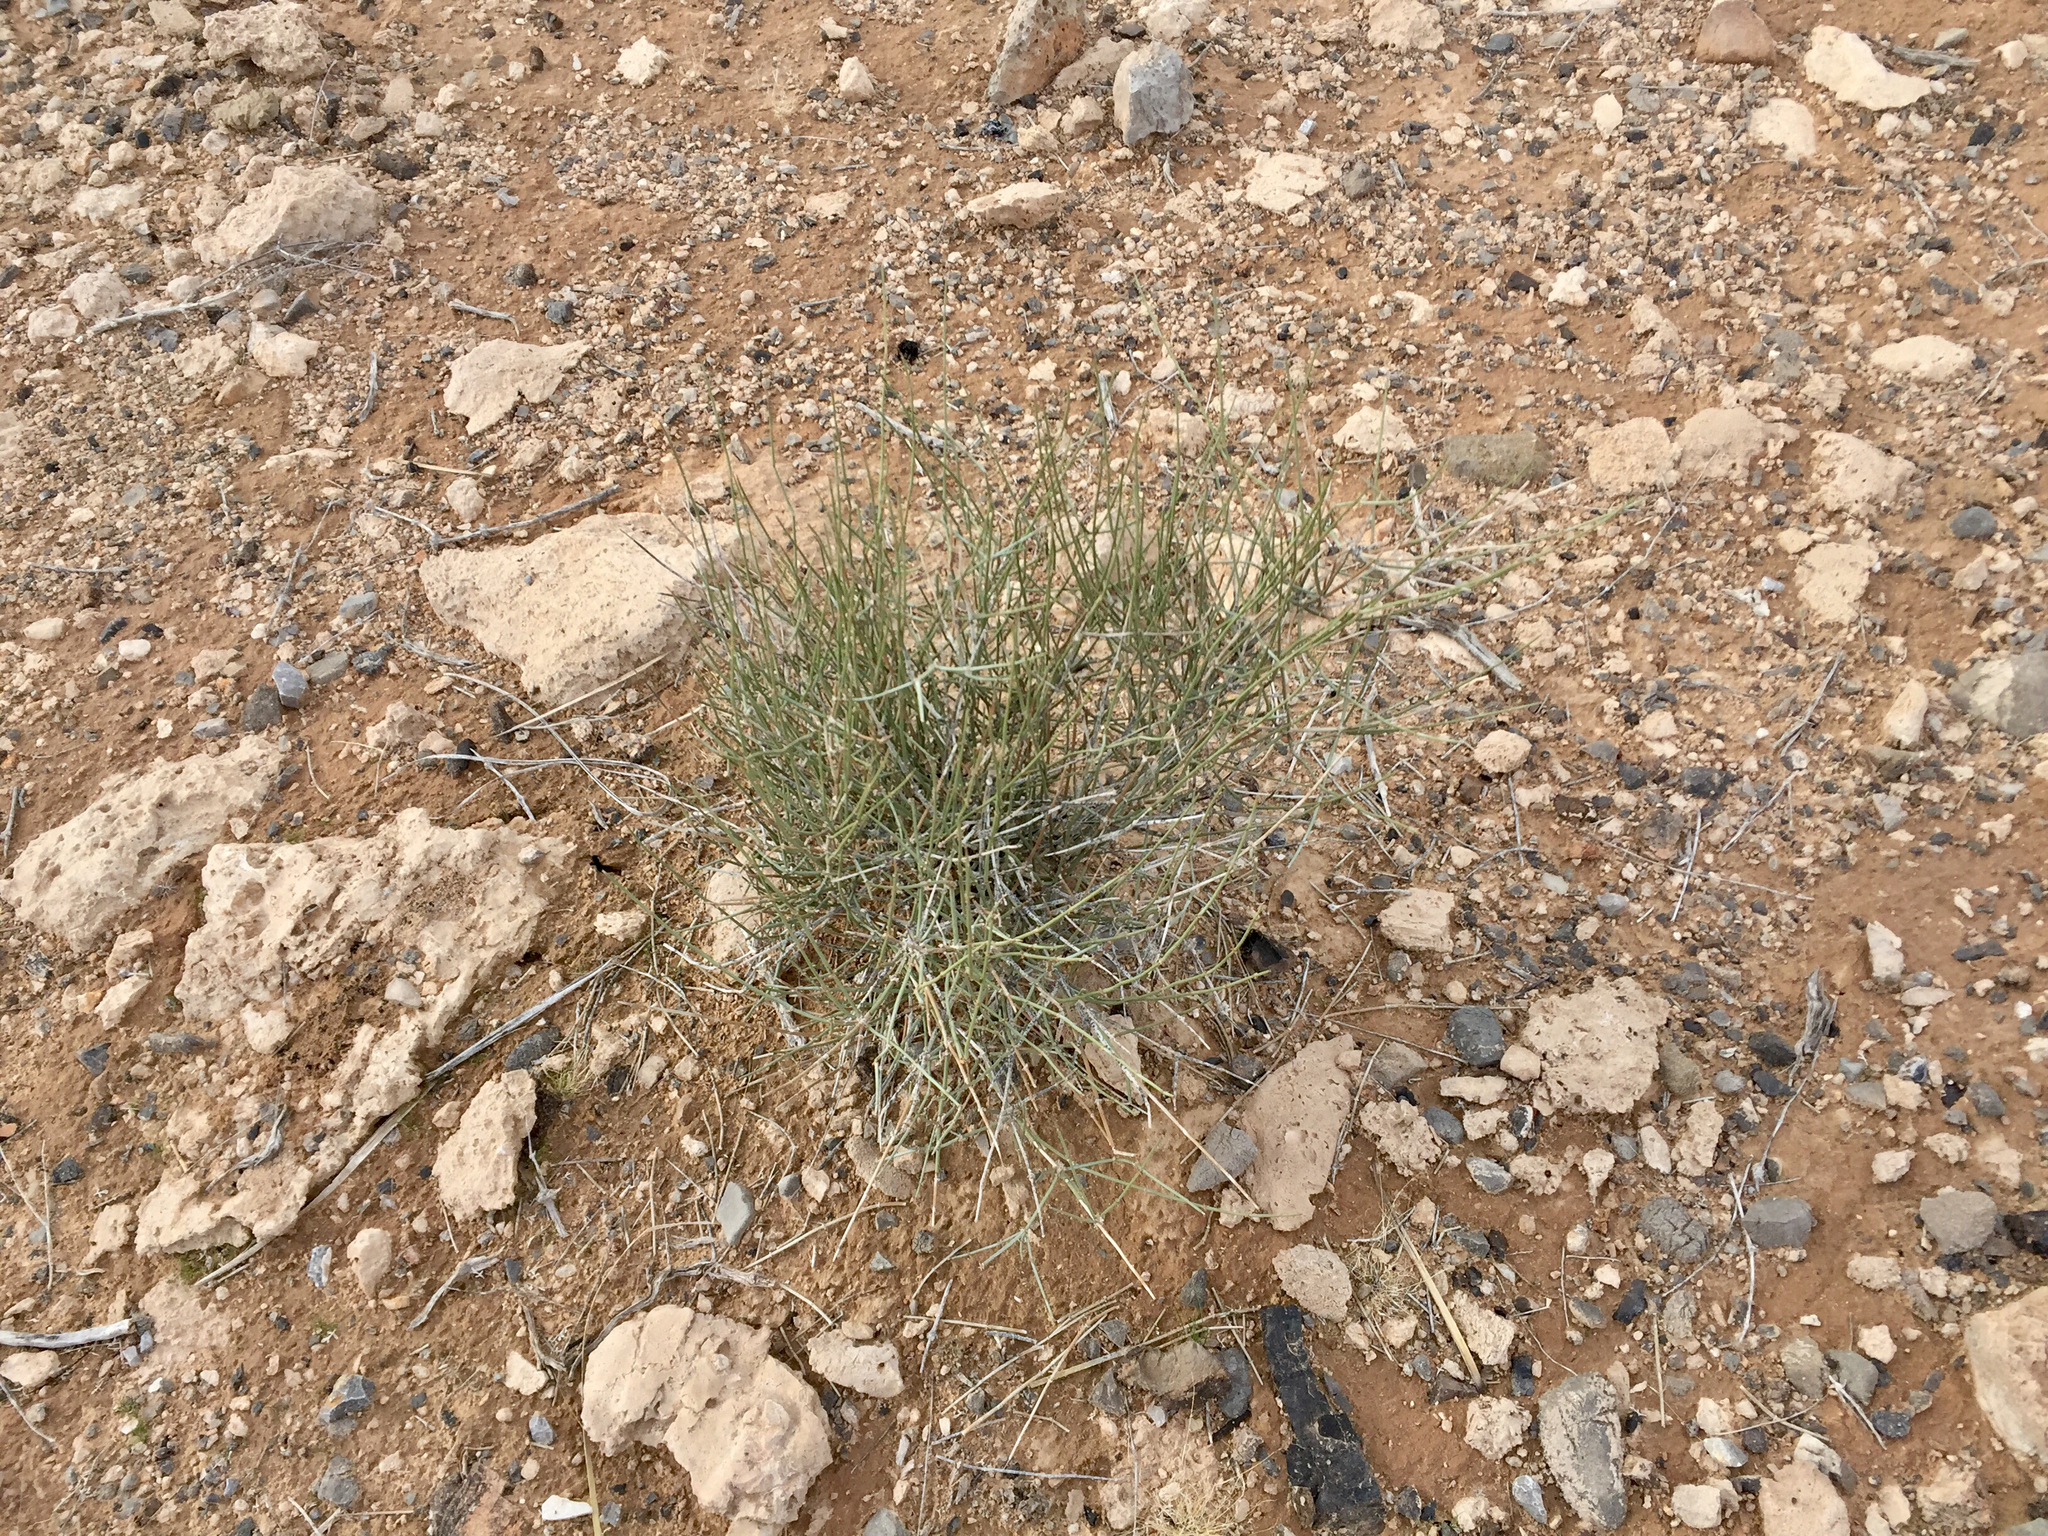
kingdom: Plantae
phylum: Tracheophyta
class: Gnetopsida
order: Ephedrales
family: Ephedraceae
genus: Ephedra
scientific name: Ephedra nevadensis
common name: Gray ephedra
